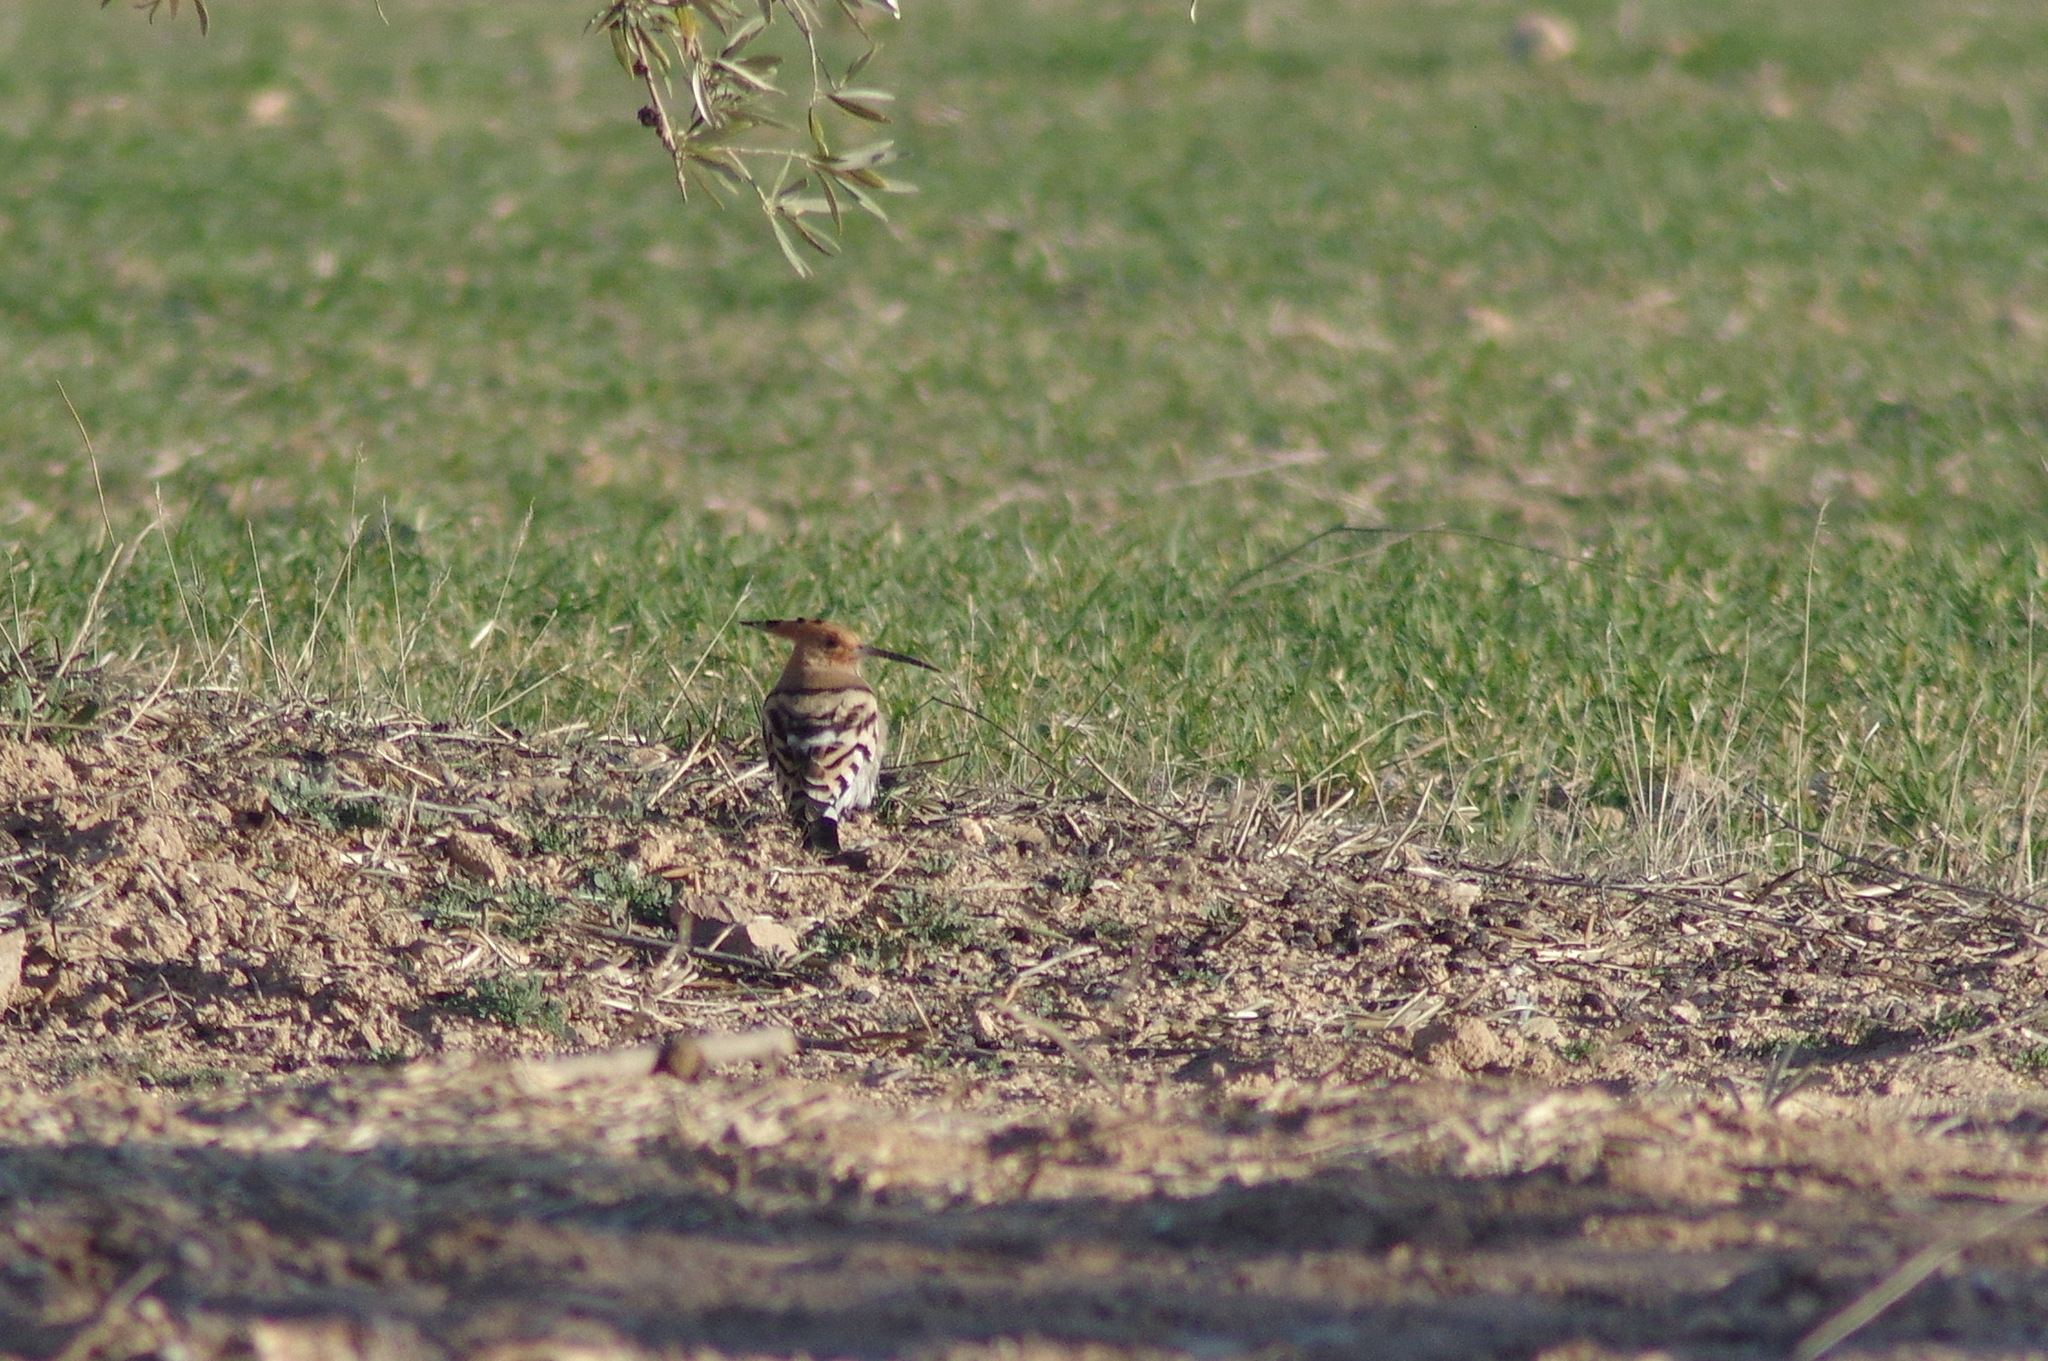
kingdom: Animalia
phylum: Chordata
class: Aves
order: Bucerotiformes
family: Upupidae
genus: Upupa
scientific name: Upupa epops
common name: Eurasian hoopoe
